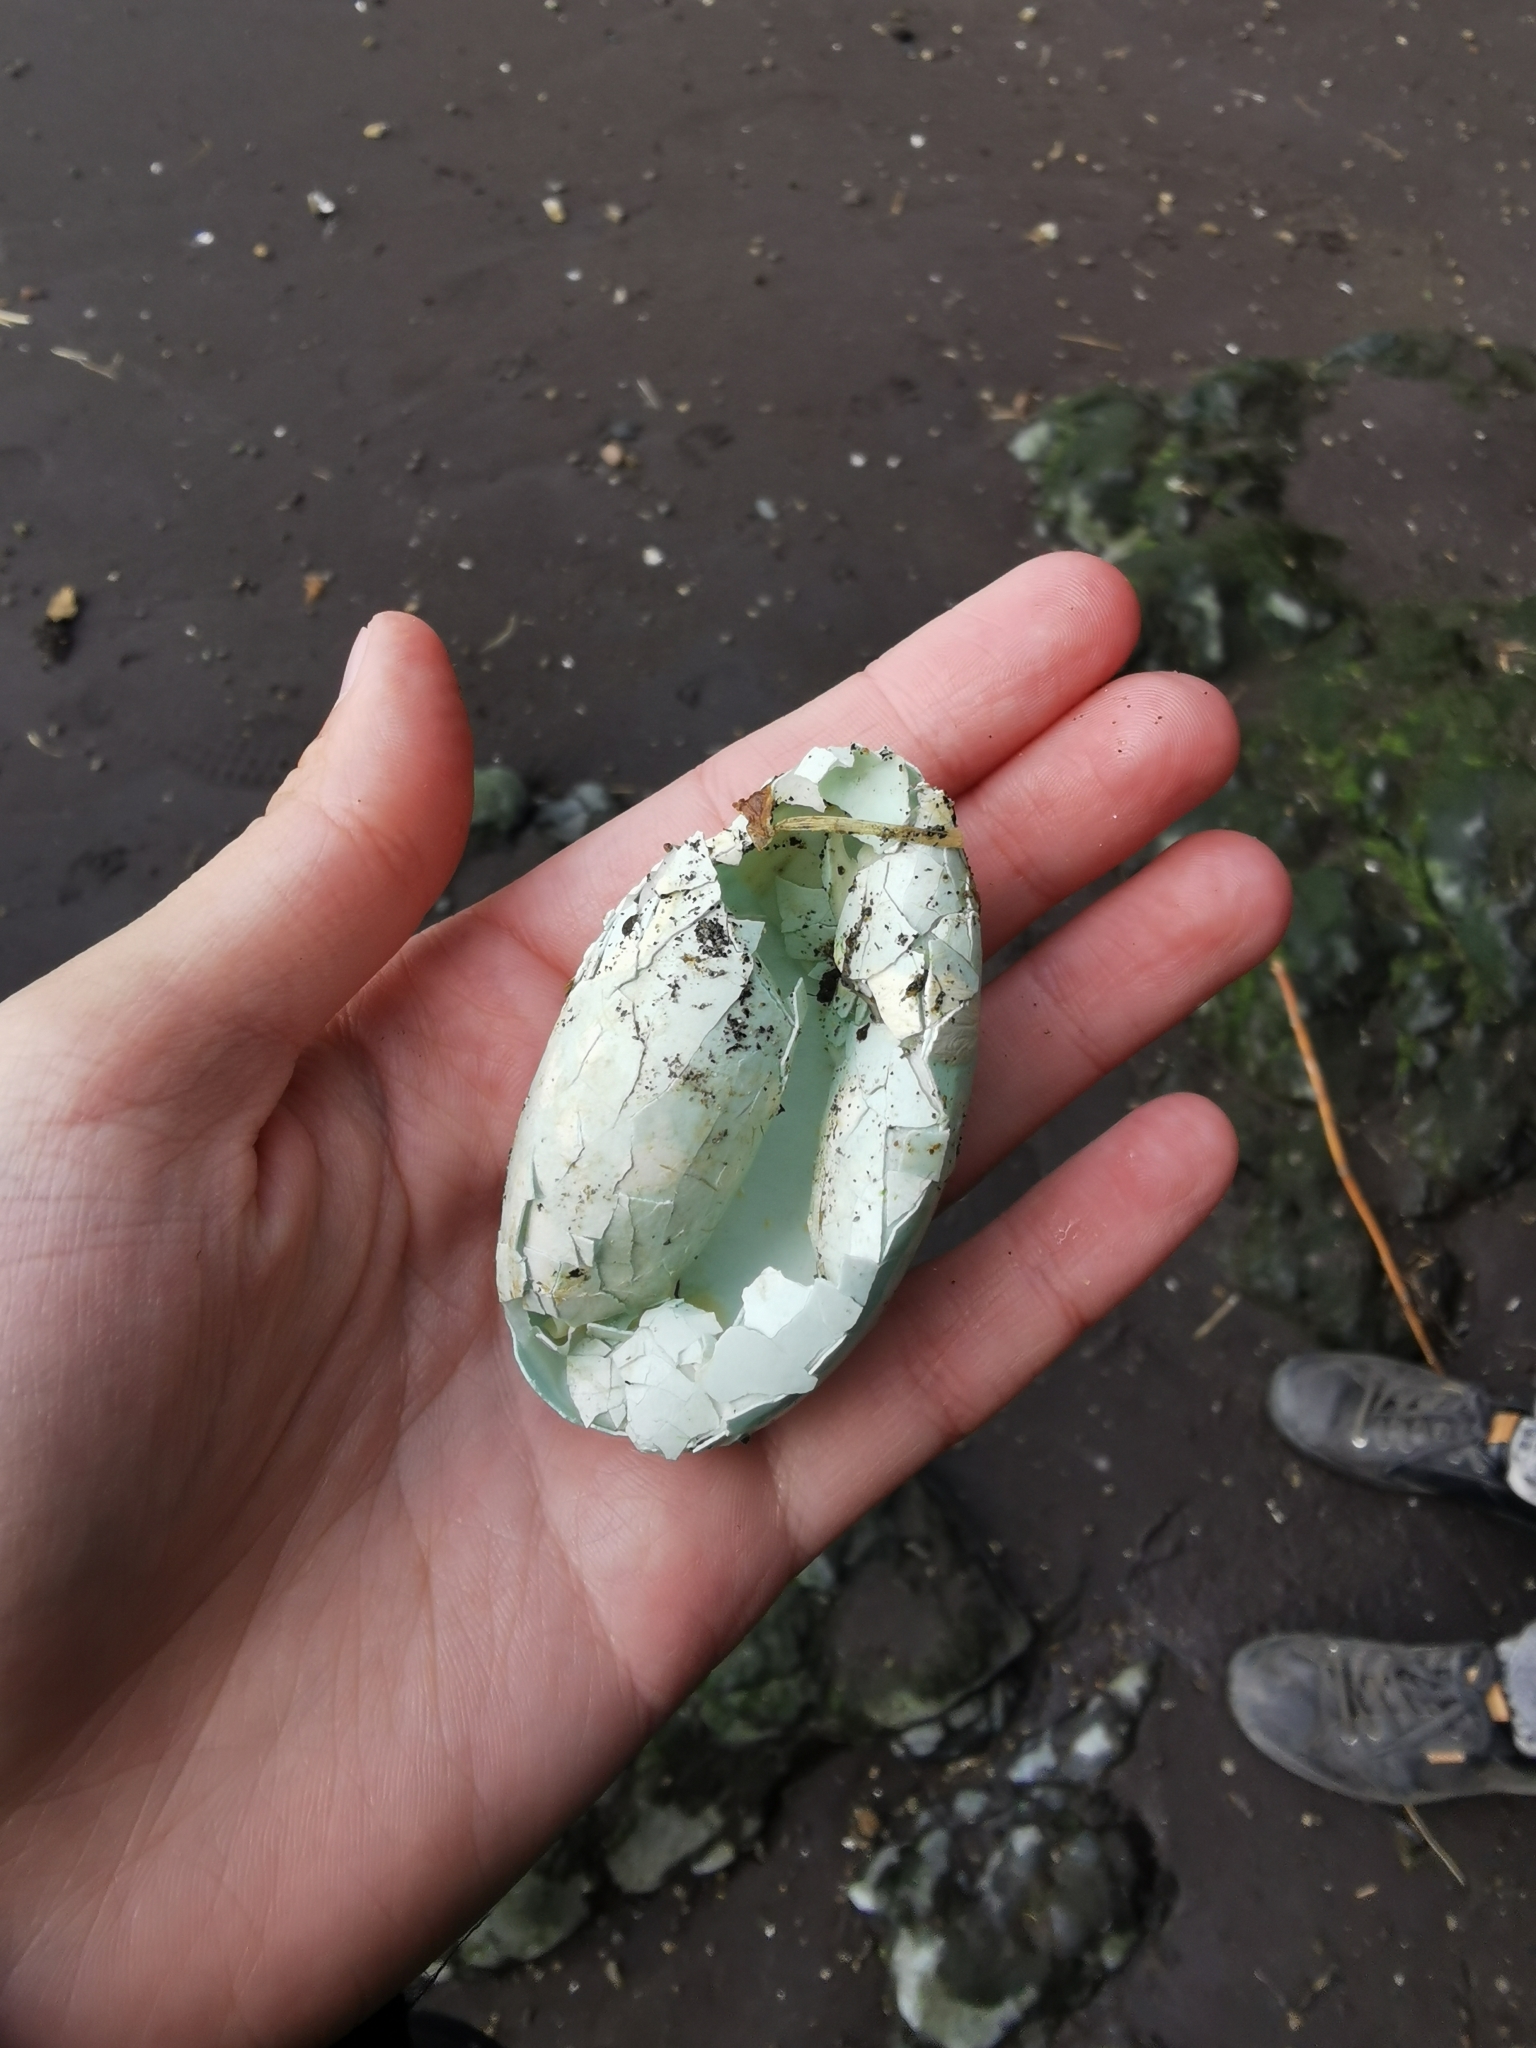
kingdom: Animalia
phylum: Chordata
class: Aves
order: Suliformes
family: Phalacrocoracidae
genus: Phalacrocorax
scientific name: Phalacrocorax urile
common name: Red-faced cormorant
